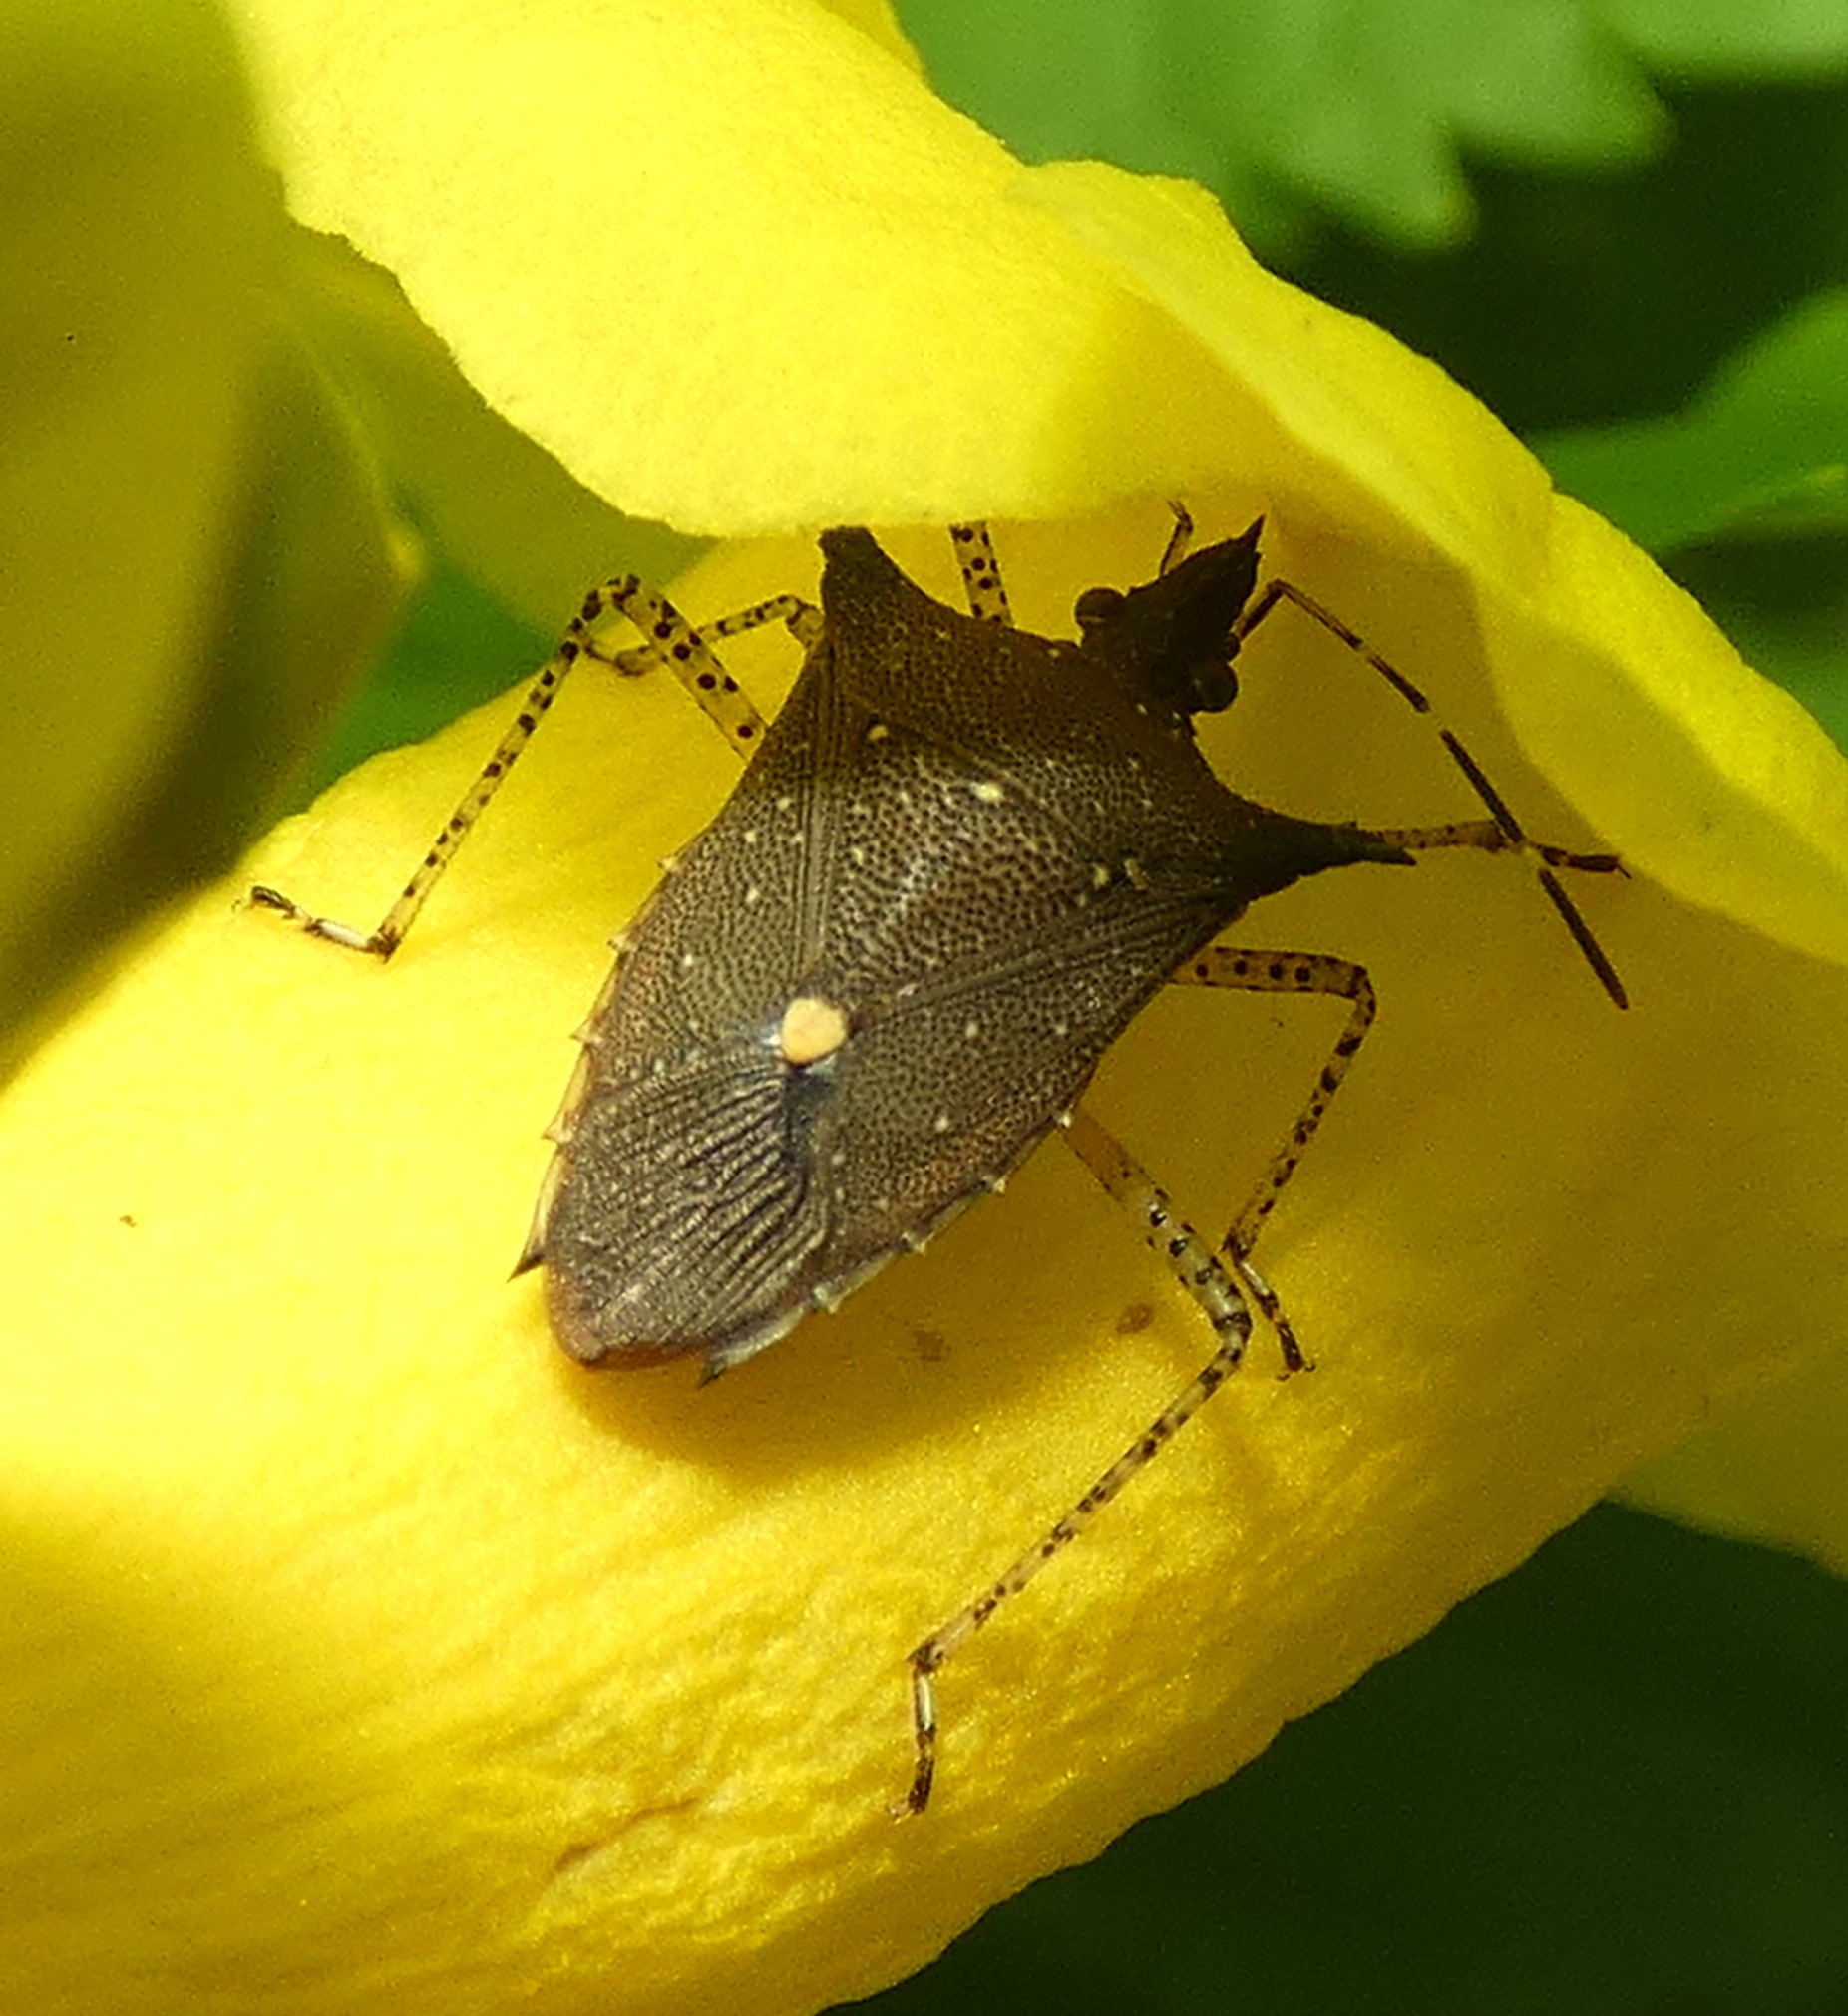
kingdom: Animalia
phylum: Arthropoda
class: Insecta
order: Hemiptera
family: Pentatomidae
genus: Proxys
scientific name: Proxys albopunctulatus
